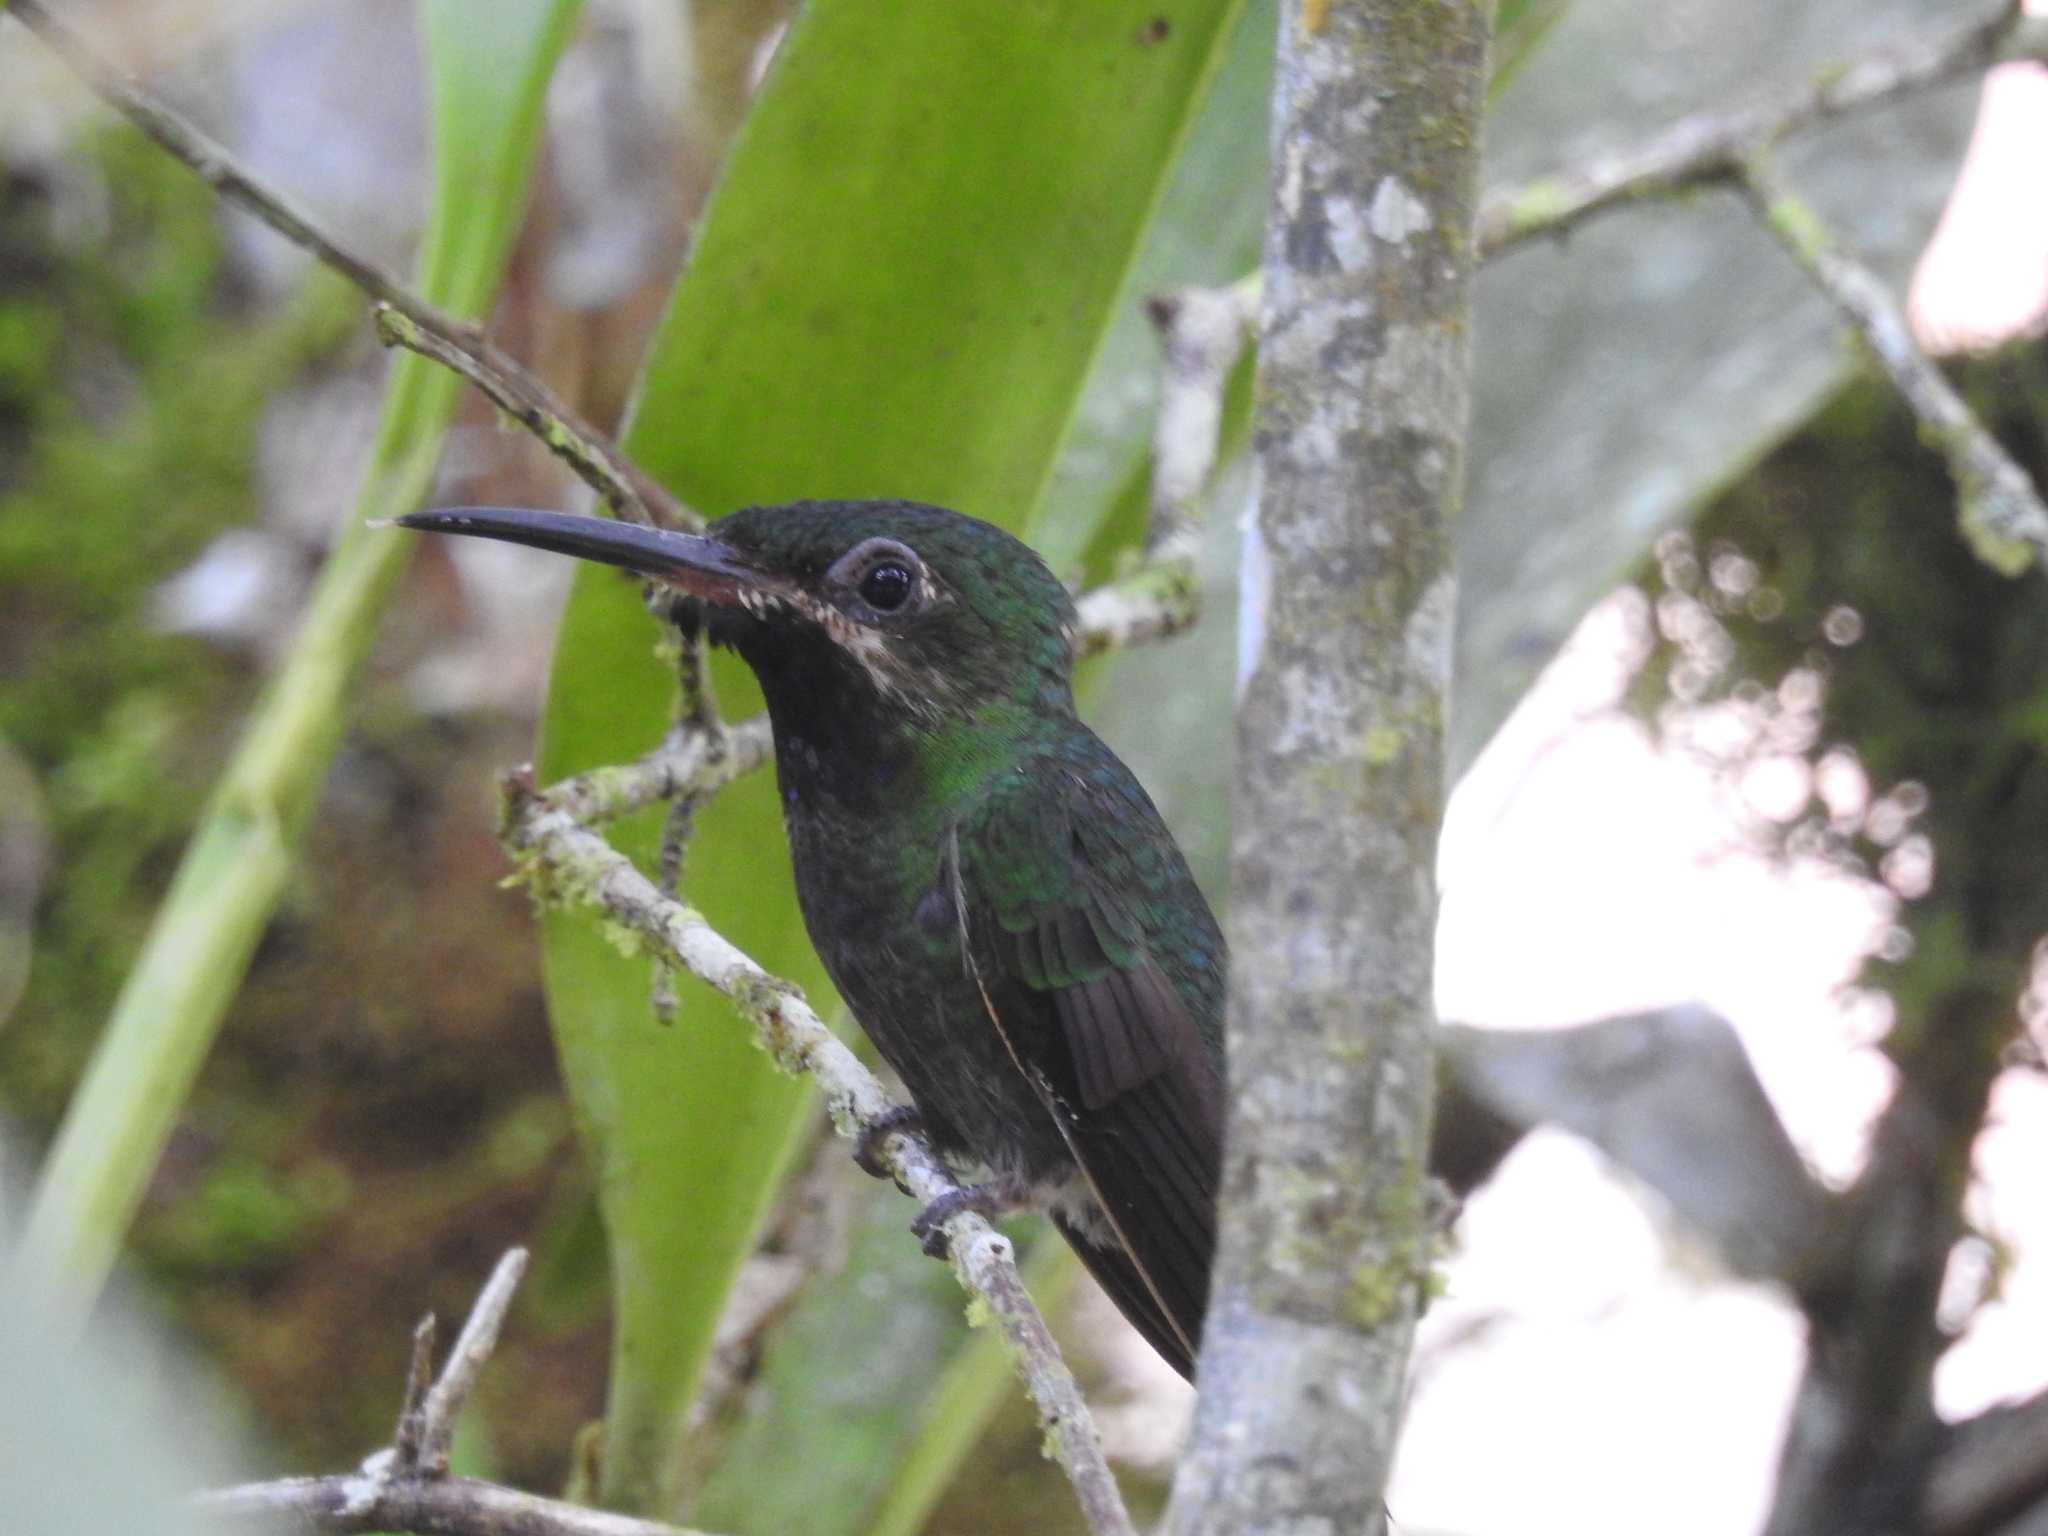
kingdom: Animalia
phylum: Chordata
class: Aves
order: Apodiformes
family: Trochilidae
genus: Heliodoxa
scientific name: Heliodoxa schreibersii
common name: Black-throated brilliant
